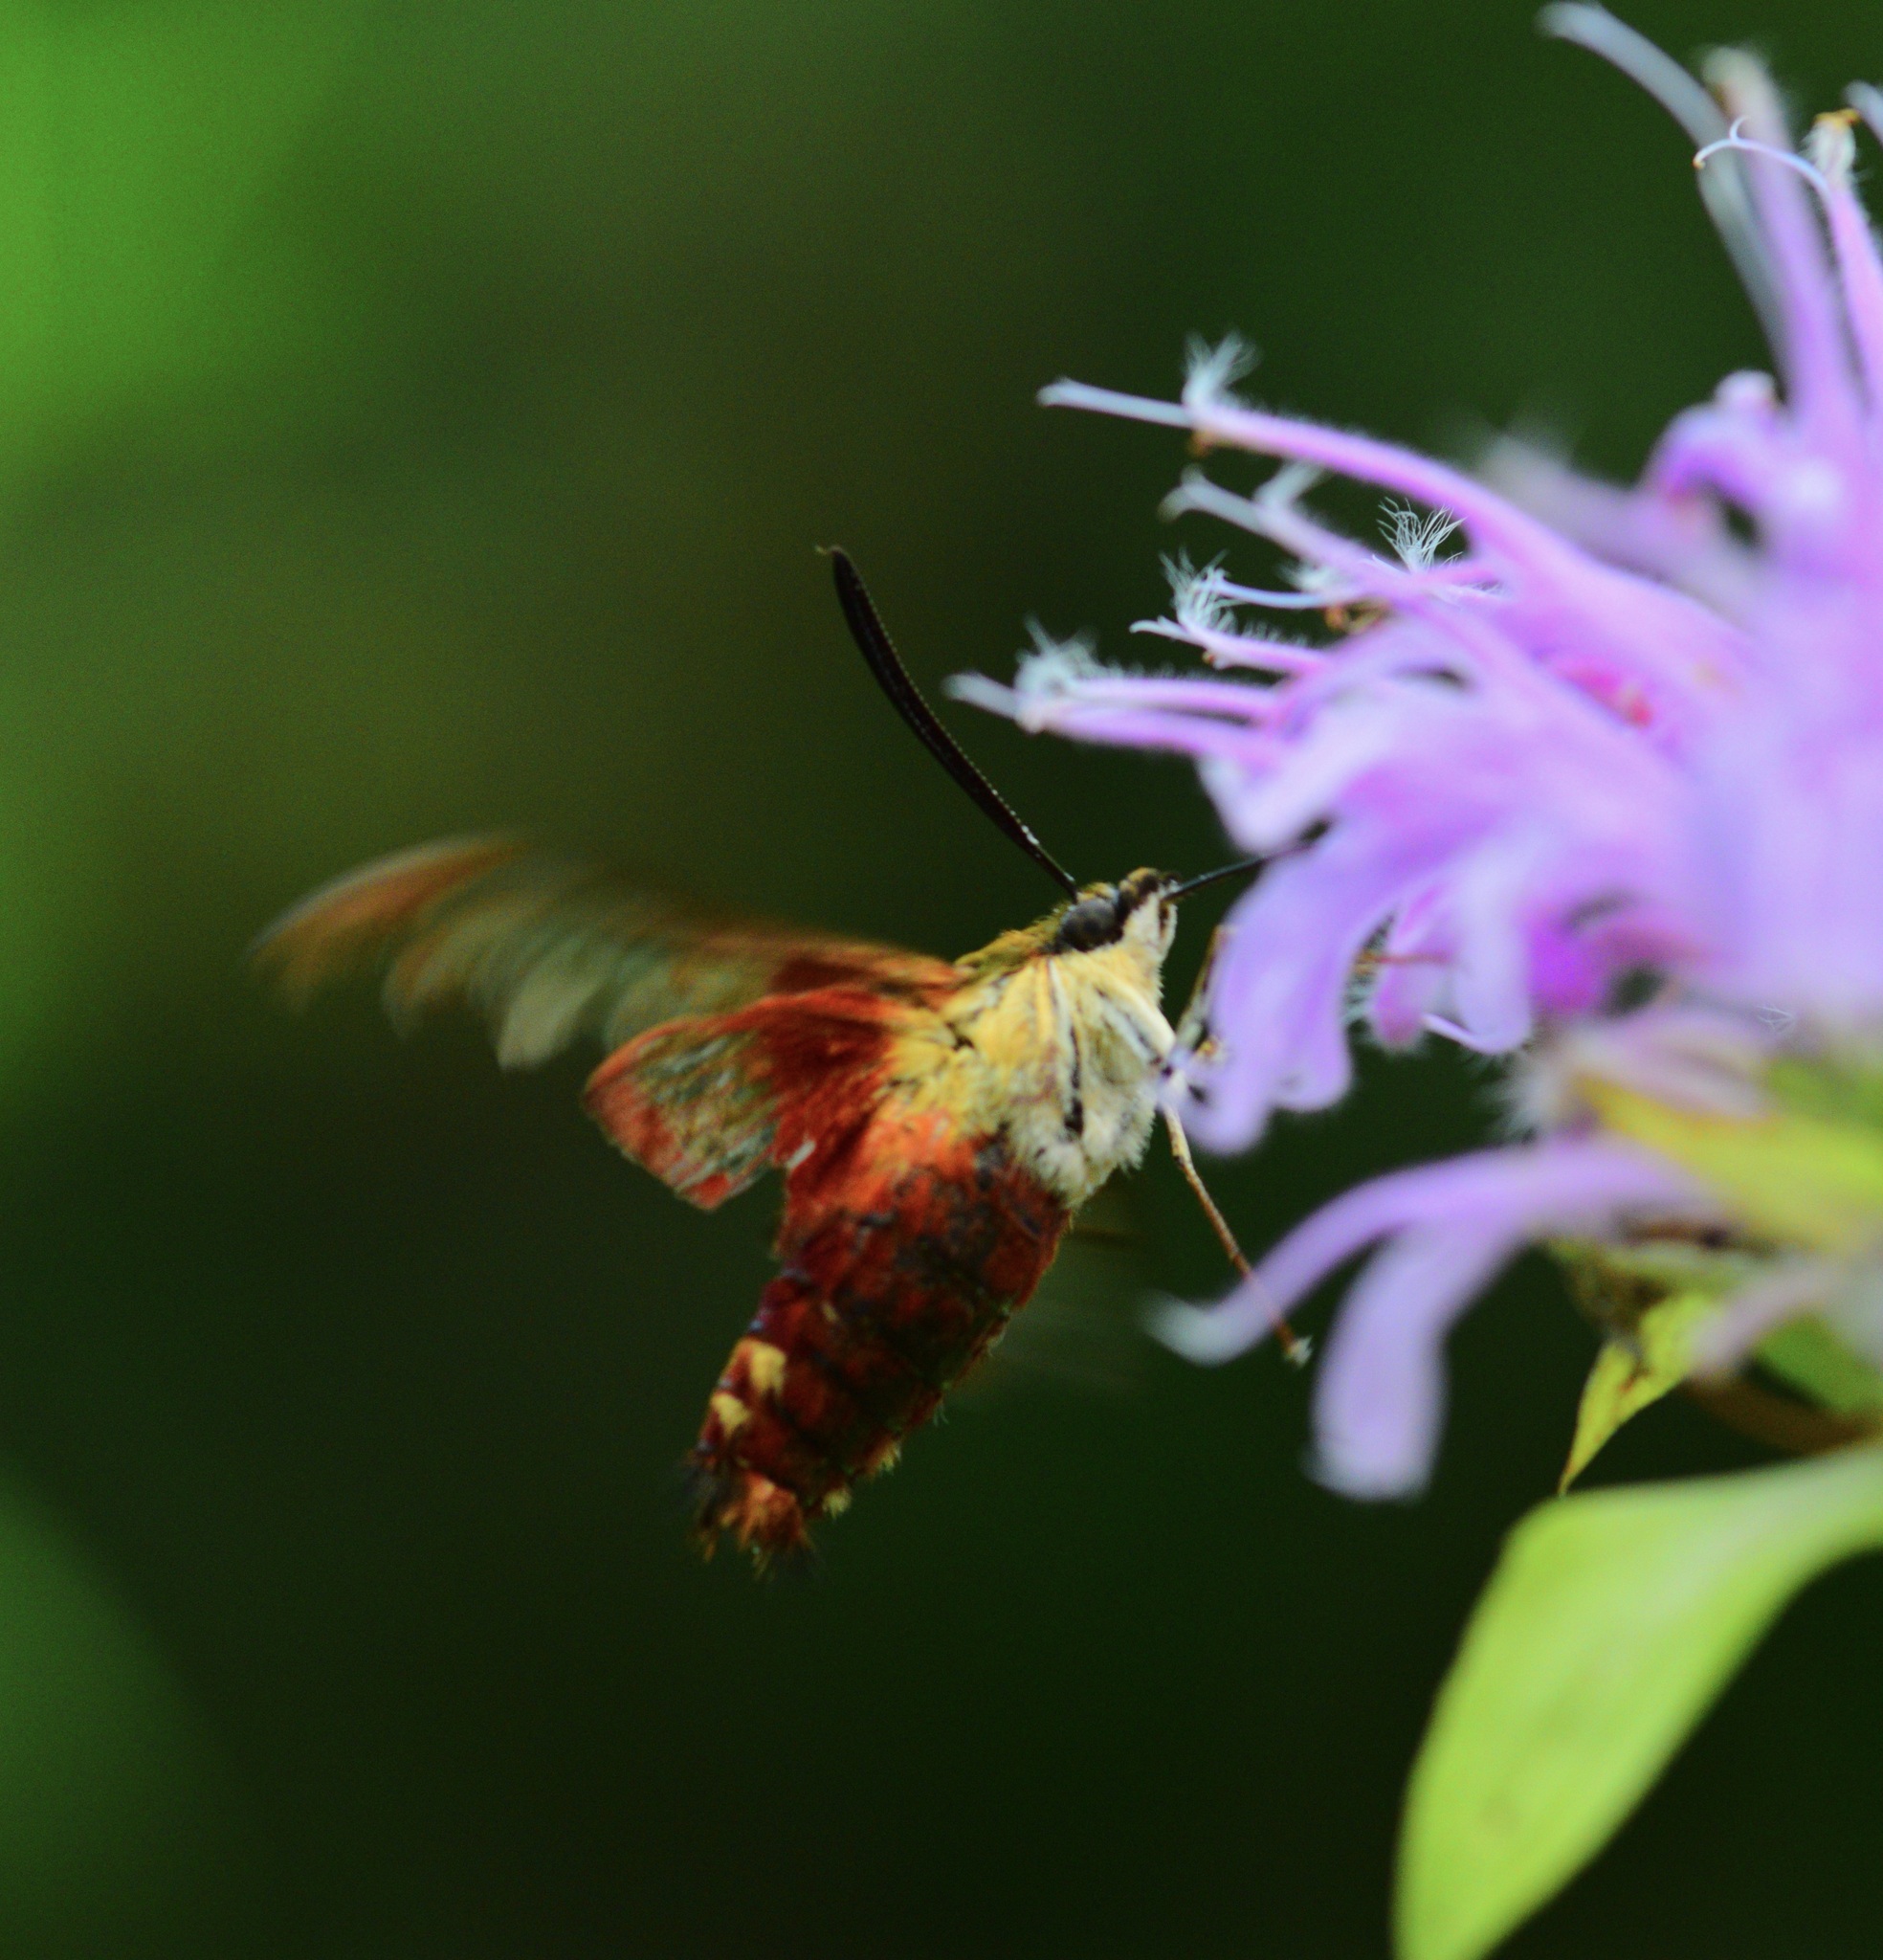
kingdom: Animalia
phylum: Arthropoda
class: Insecta
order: Lepidoptera
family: Sphingidae
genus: Hemaris
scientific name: Hemaris thysbe
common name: Common clear-wing
